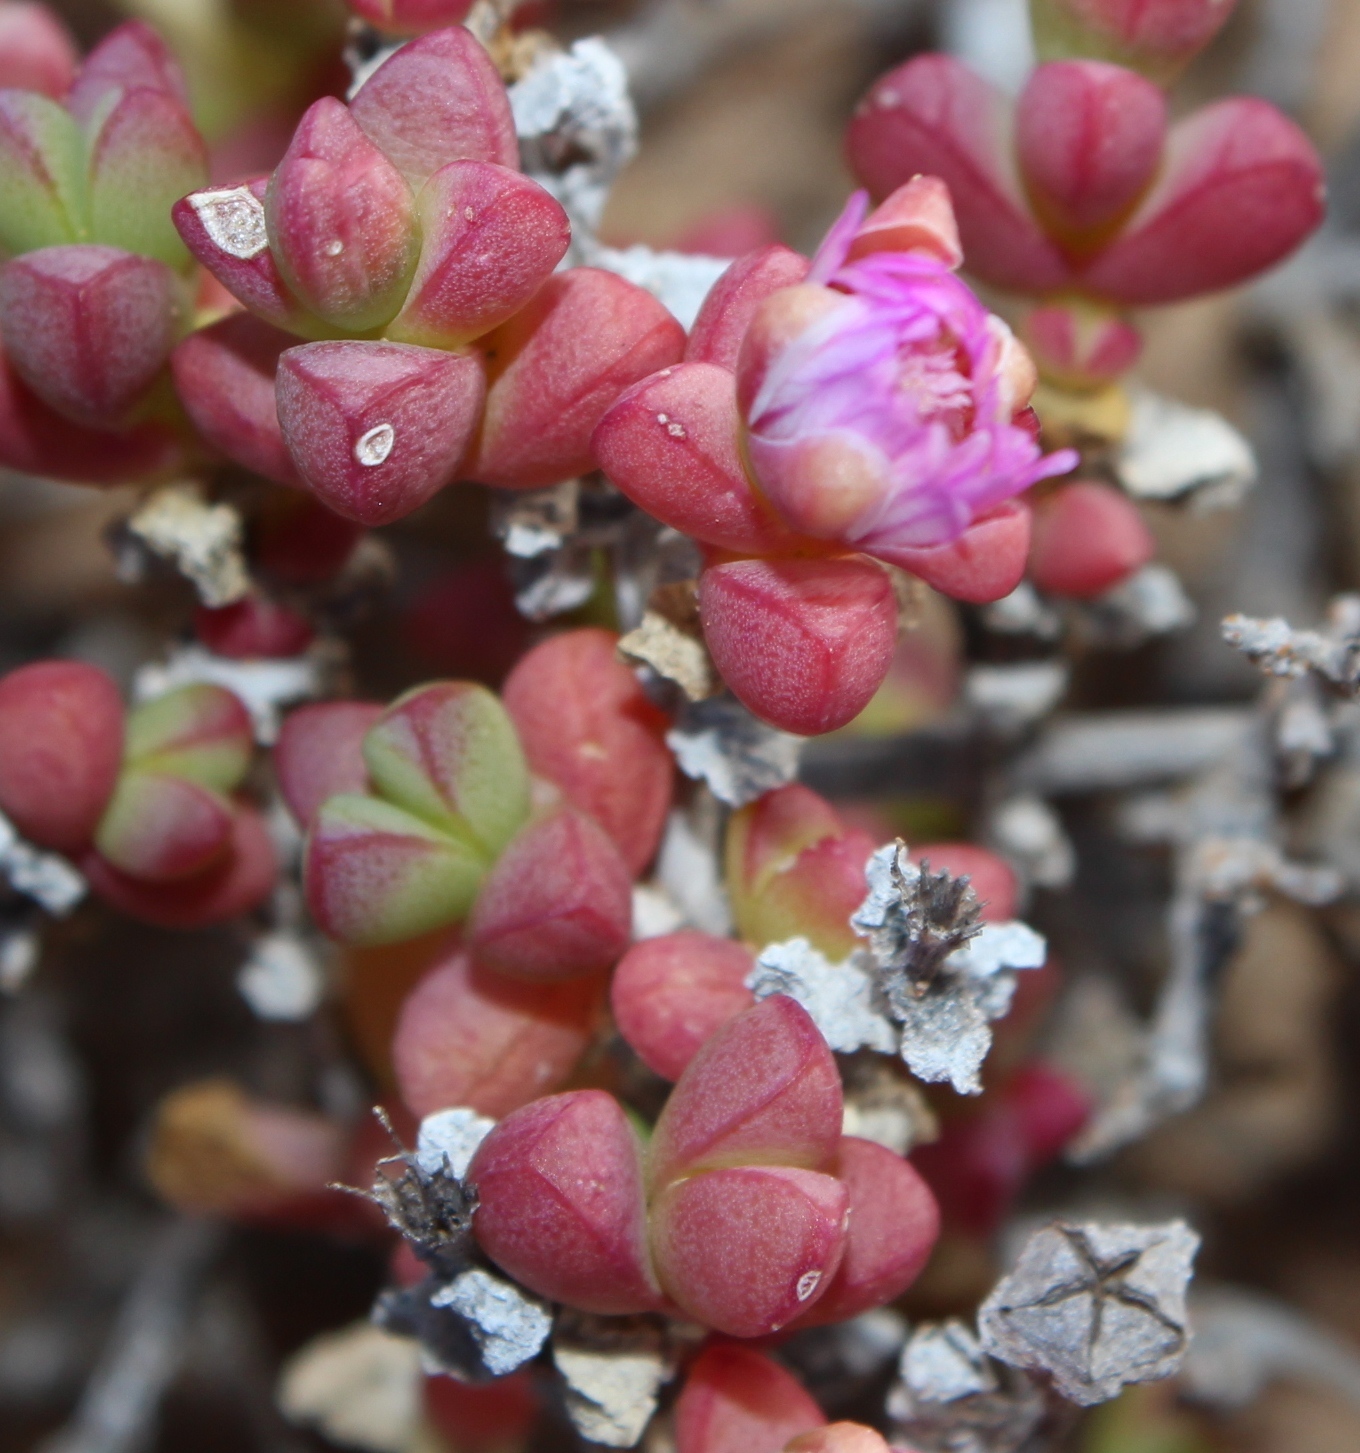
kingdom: Plantae
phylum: Tracheophyta
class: Magnoliopsida
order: Caryophyllales
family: Aizoaceae
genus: Amphibolia
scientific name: Amphibolia succulenta
